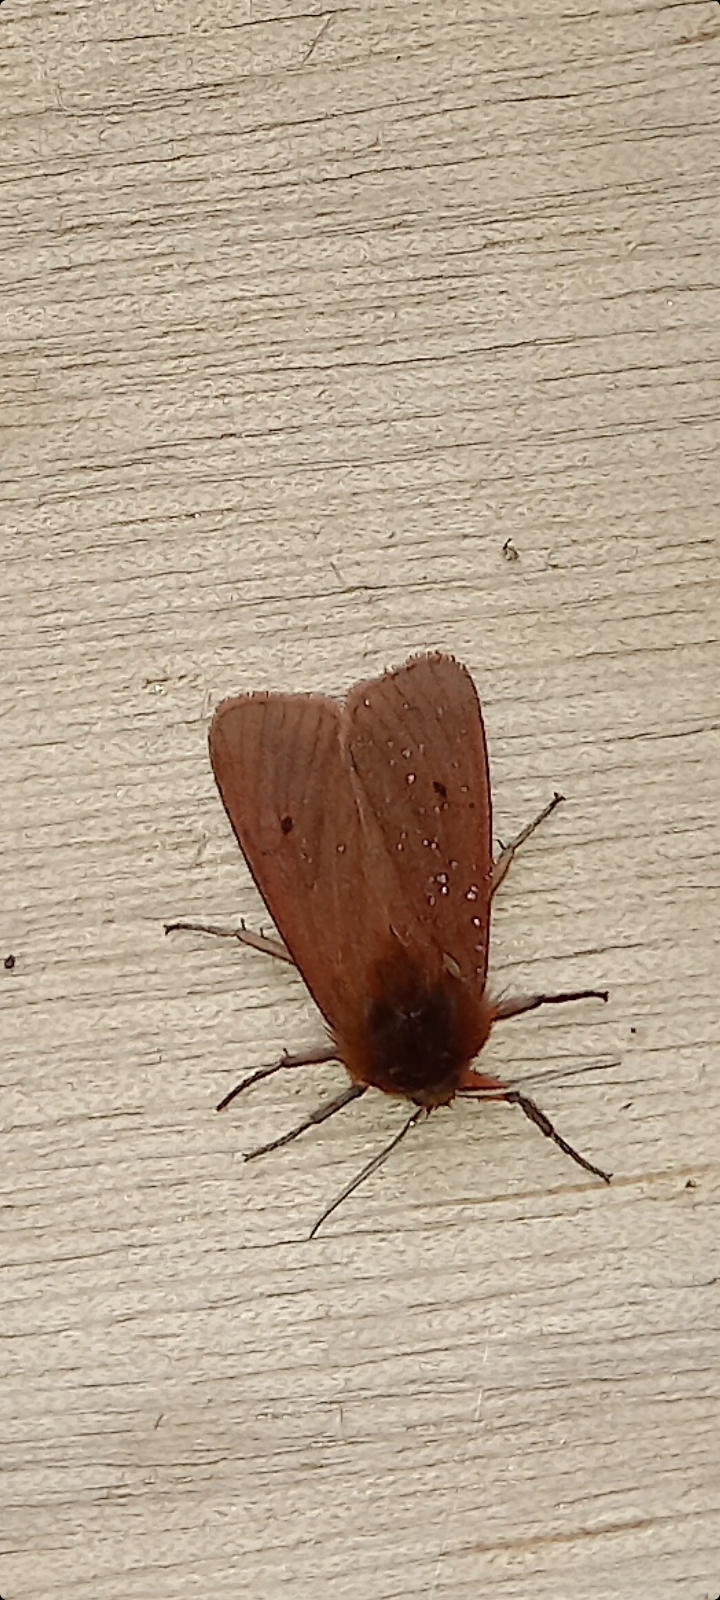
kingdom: Animalia
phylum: Arthropoda
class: Insecta
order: Lepidoptera
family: Erebidae
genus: Phragmatobia
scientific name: Phragmatobia fuliginosa
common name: Ruby tiger
